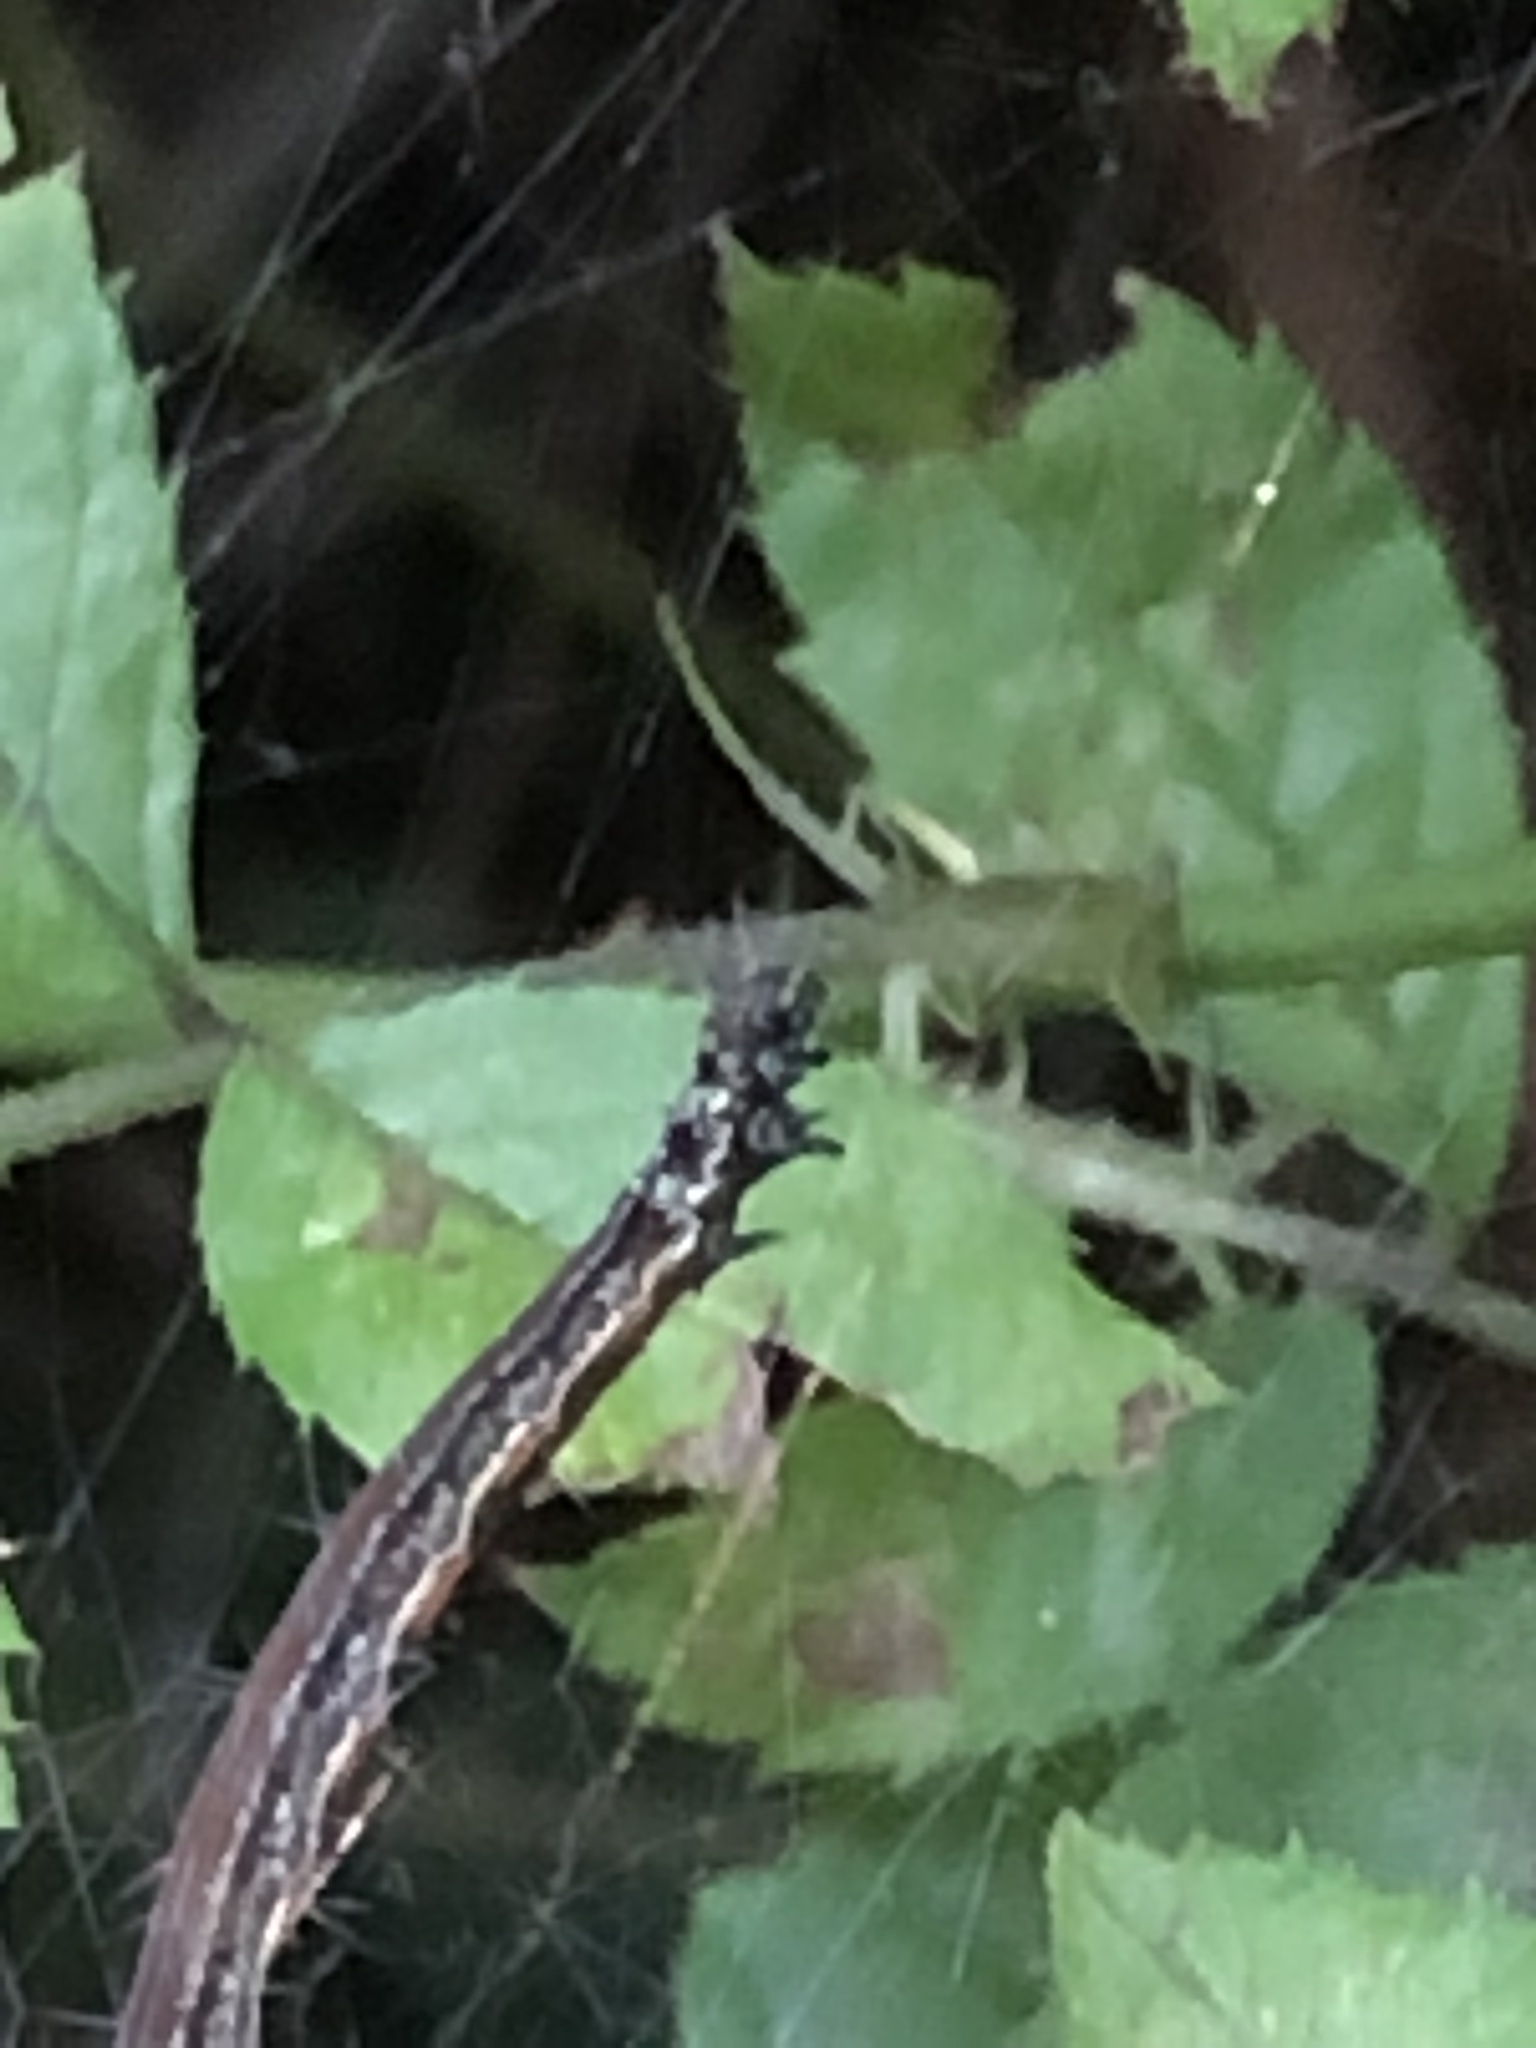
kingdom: Animalia
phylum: Arthropoda
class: Insecta
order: Lepidoptera
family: Attevidae
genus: Atteva
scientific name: Atteva punctella
